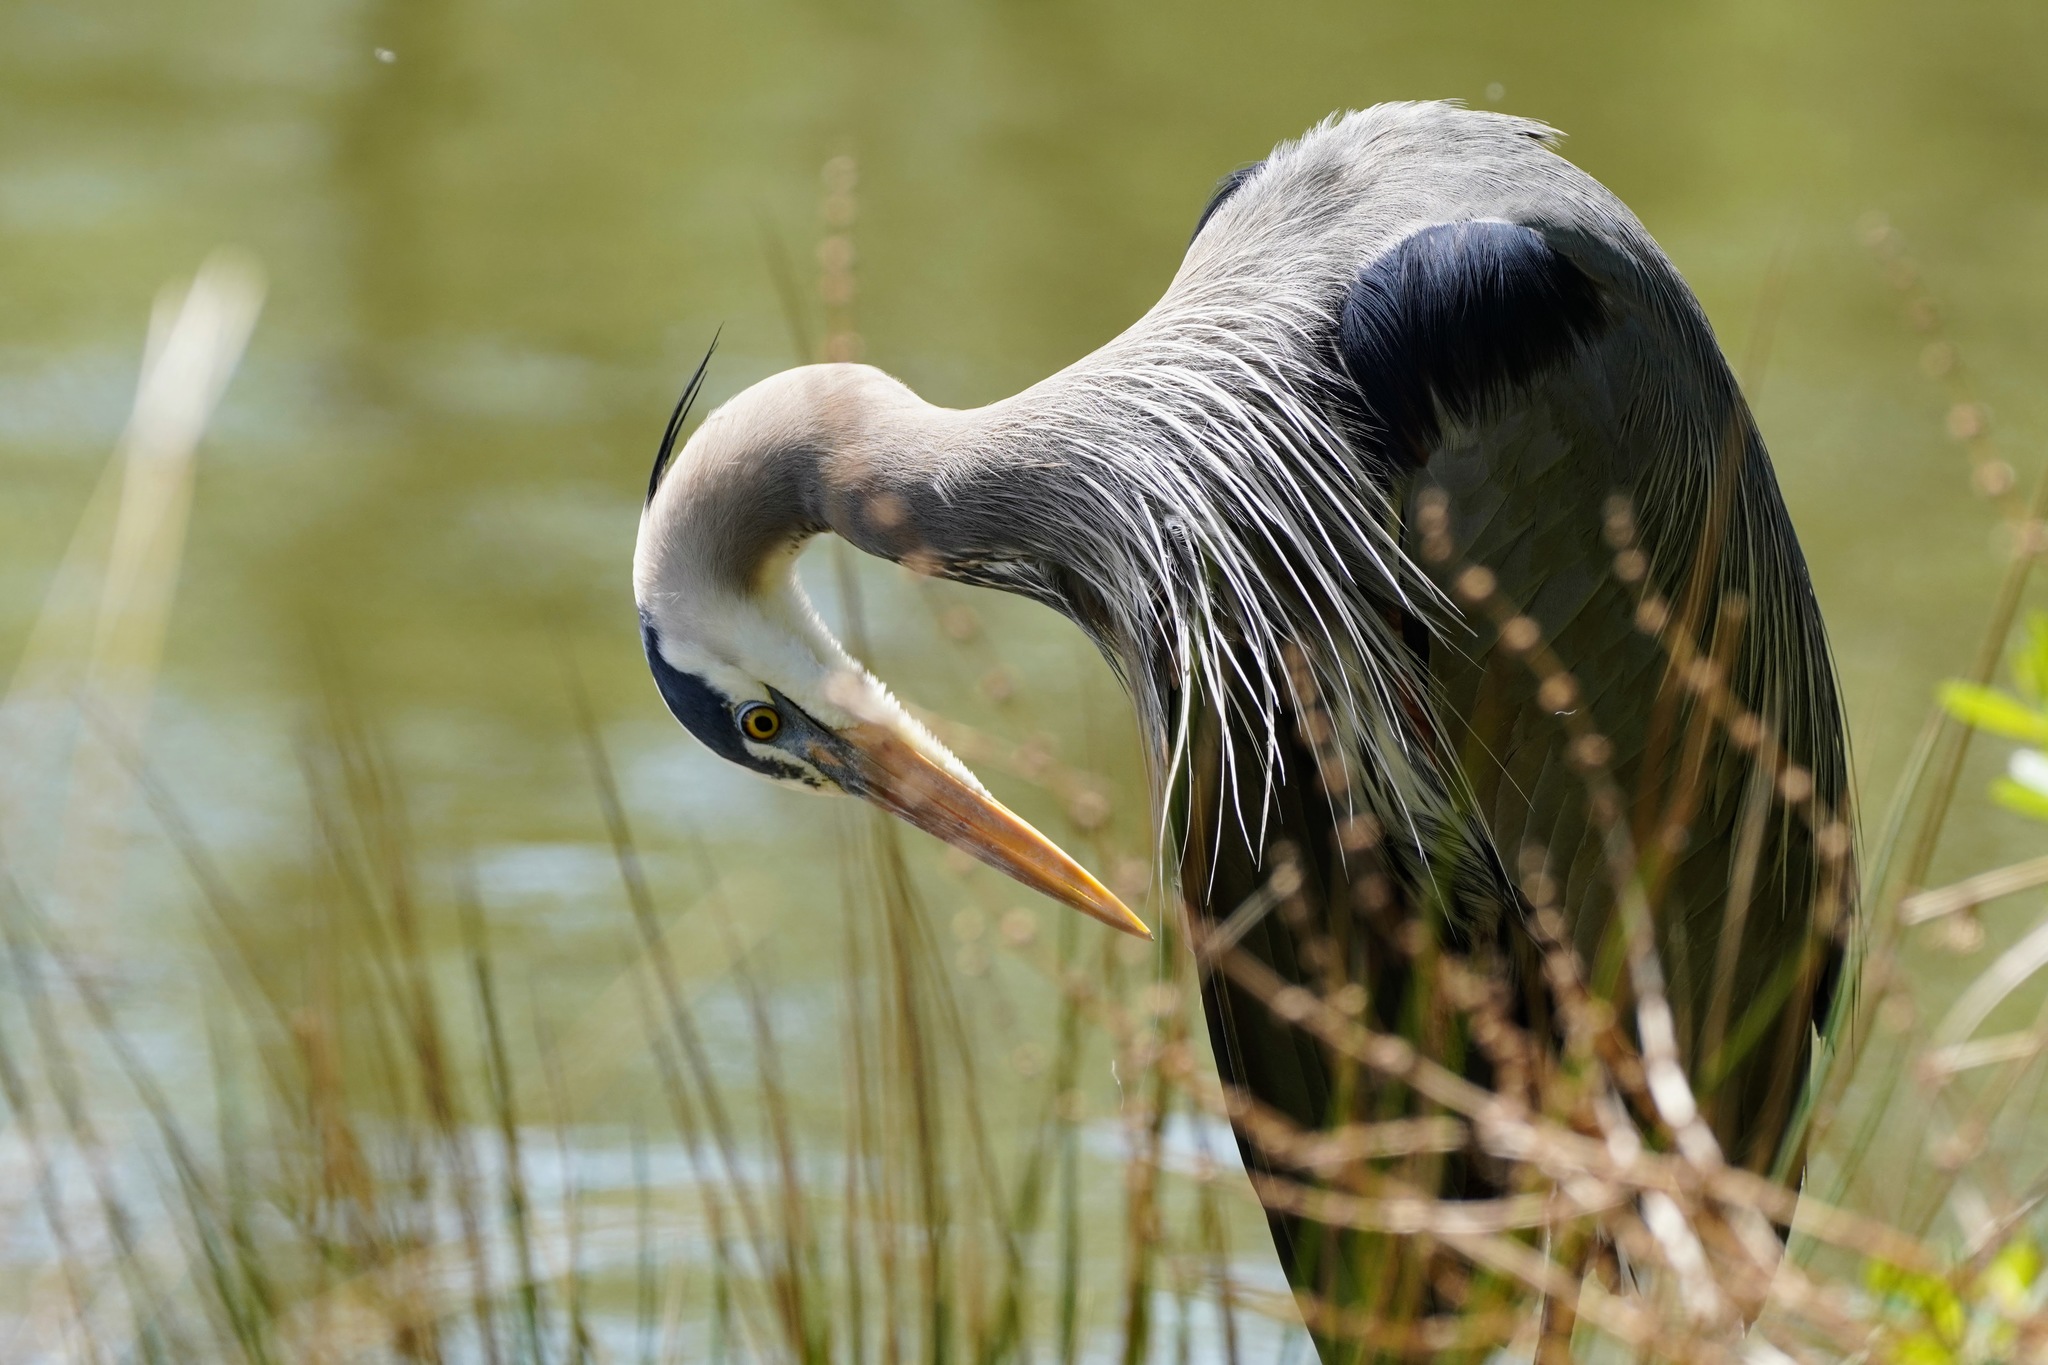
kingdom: Animalia
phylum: Chordata
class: Aves
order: Pelecaniformes
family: Ardeidae
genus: Ardea
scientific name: Ardea herodias
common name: Great blue heron
